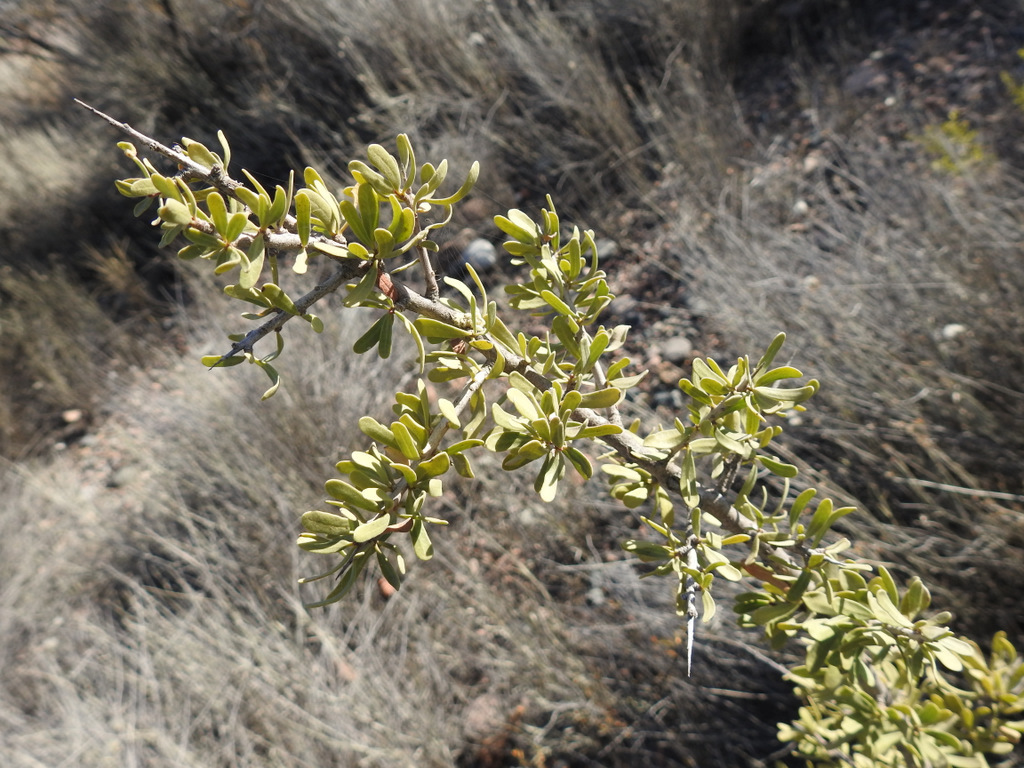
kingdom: Plantae
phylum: Tracheophyta
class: Magnoliopsida
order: Sapindales
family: Anacardiaceae
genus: Schinus
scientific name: Schinus polygama
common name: Hardee peppertree
